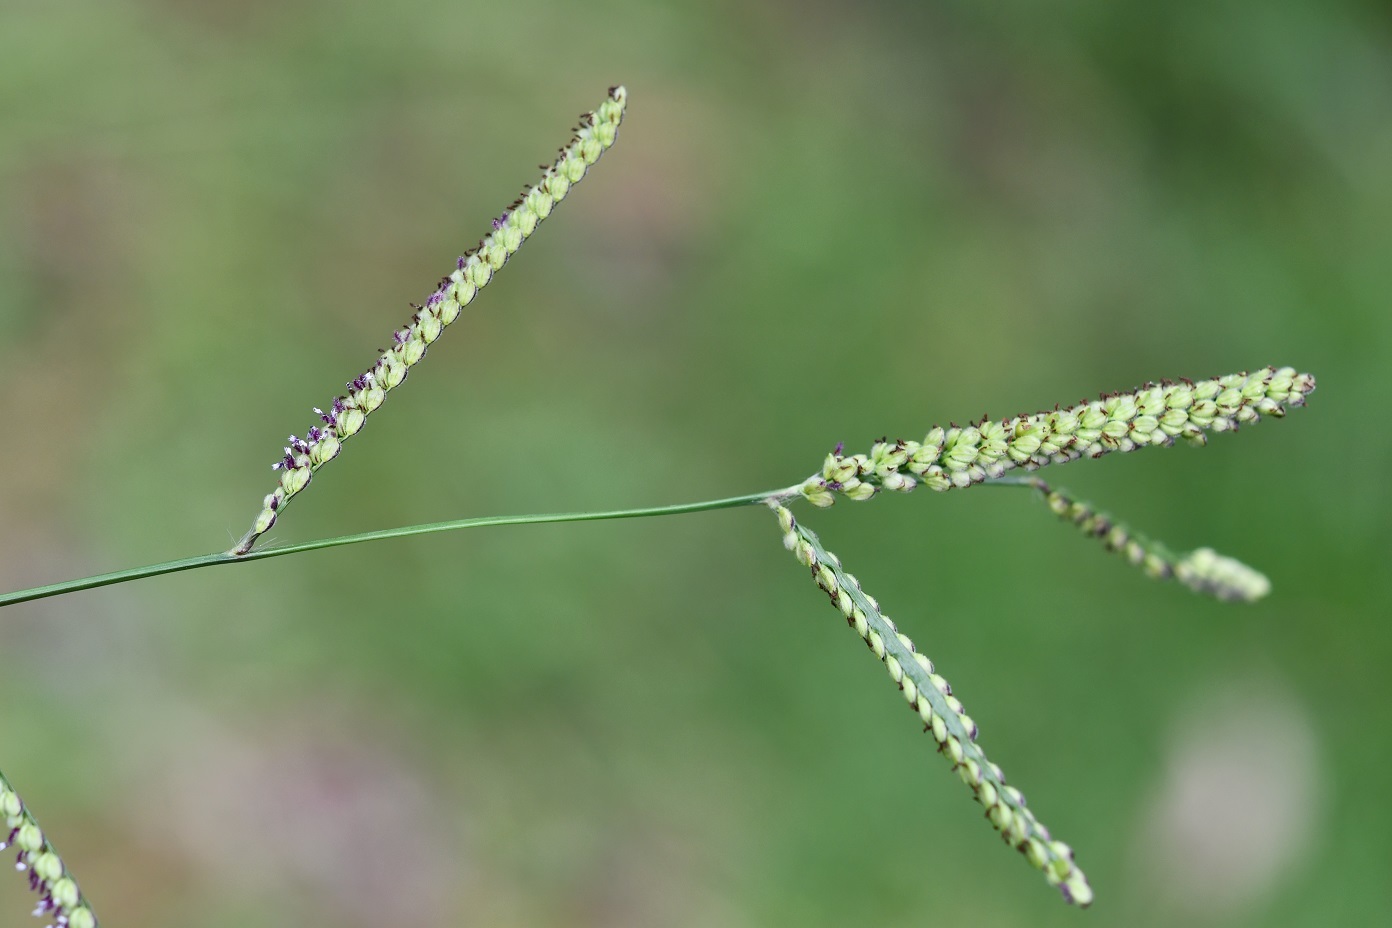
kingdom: Plantae
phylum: Tracheophyta
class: Liliopsida
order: Poales
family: Poaceae
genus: Paspalum
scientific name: Paspalum chiapense
